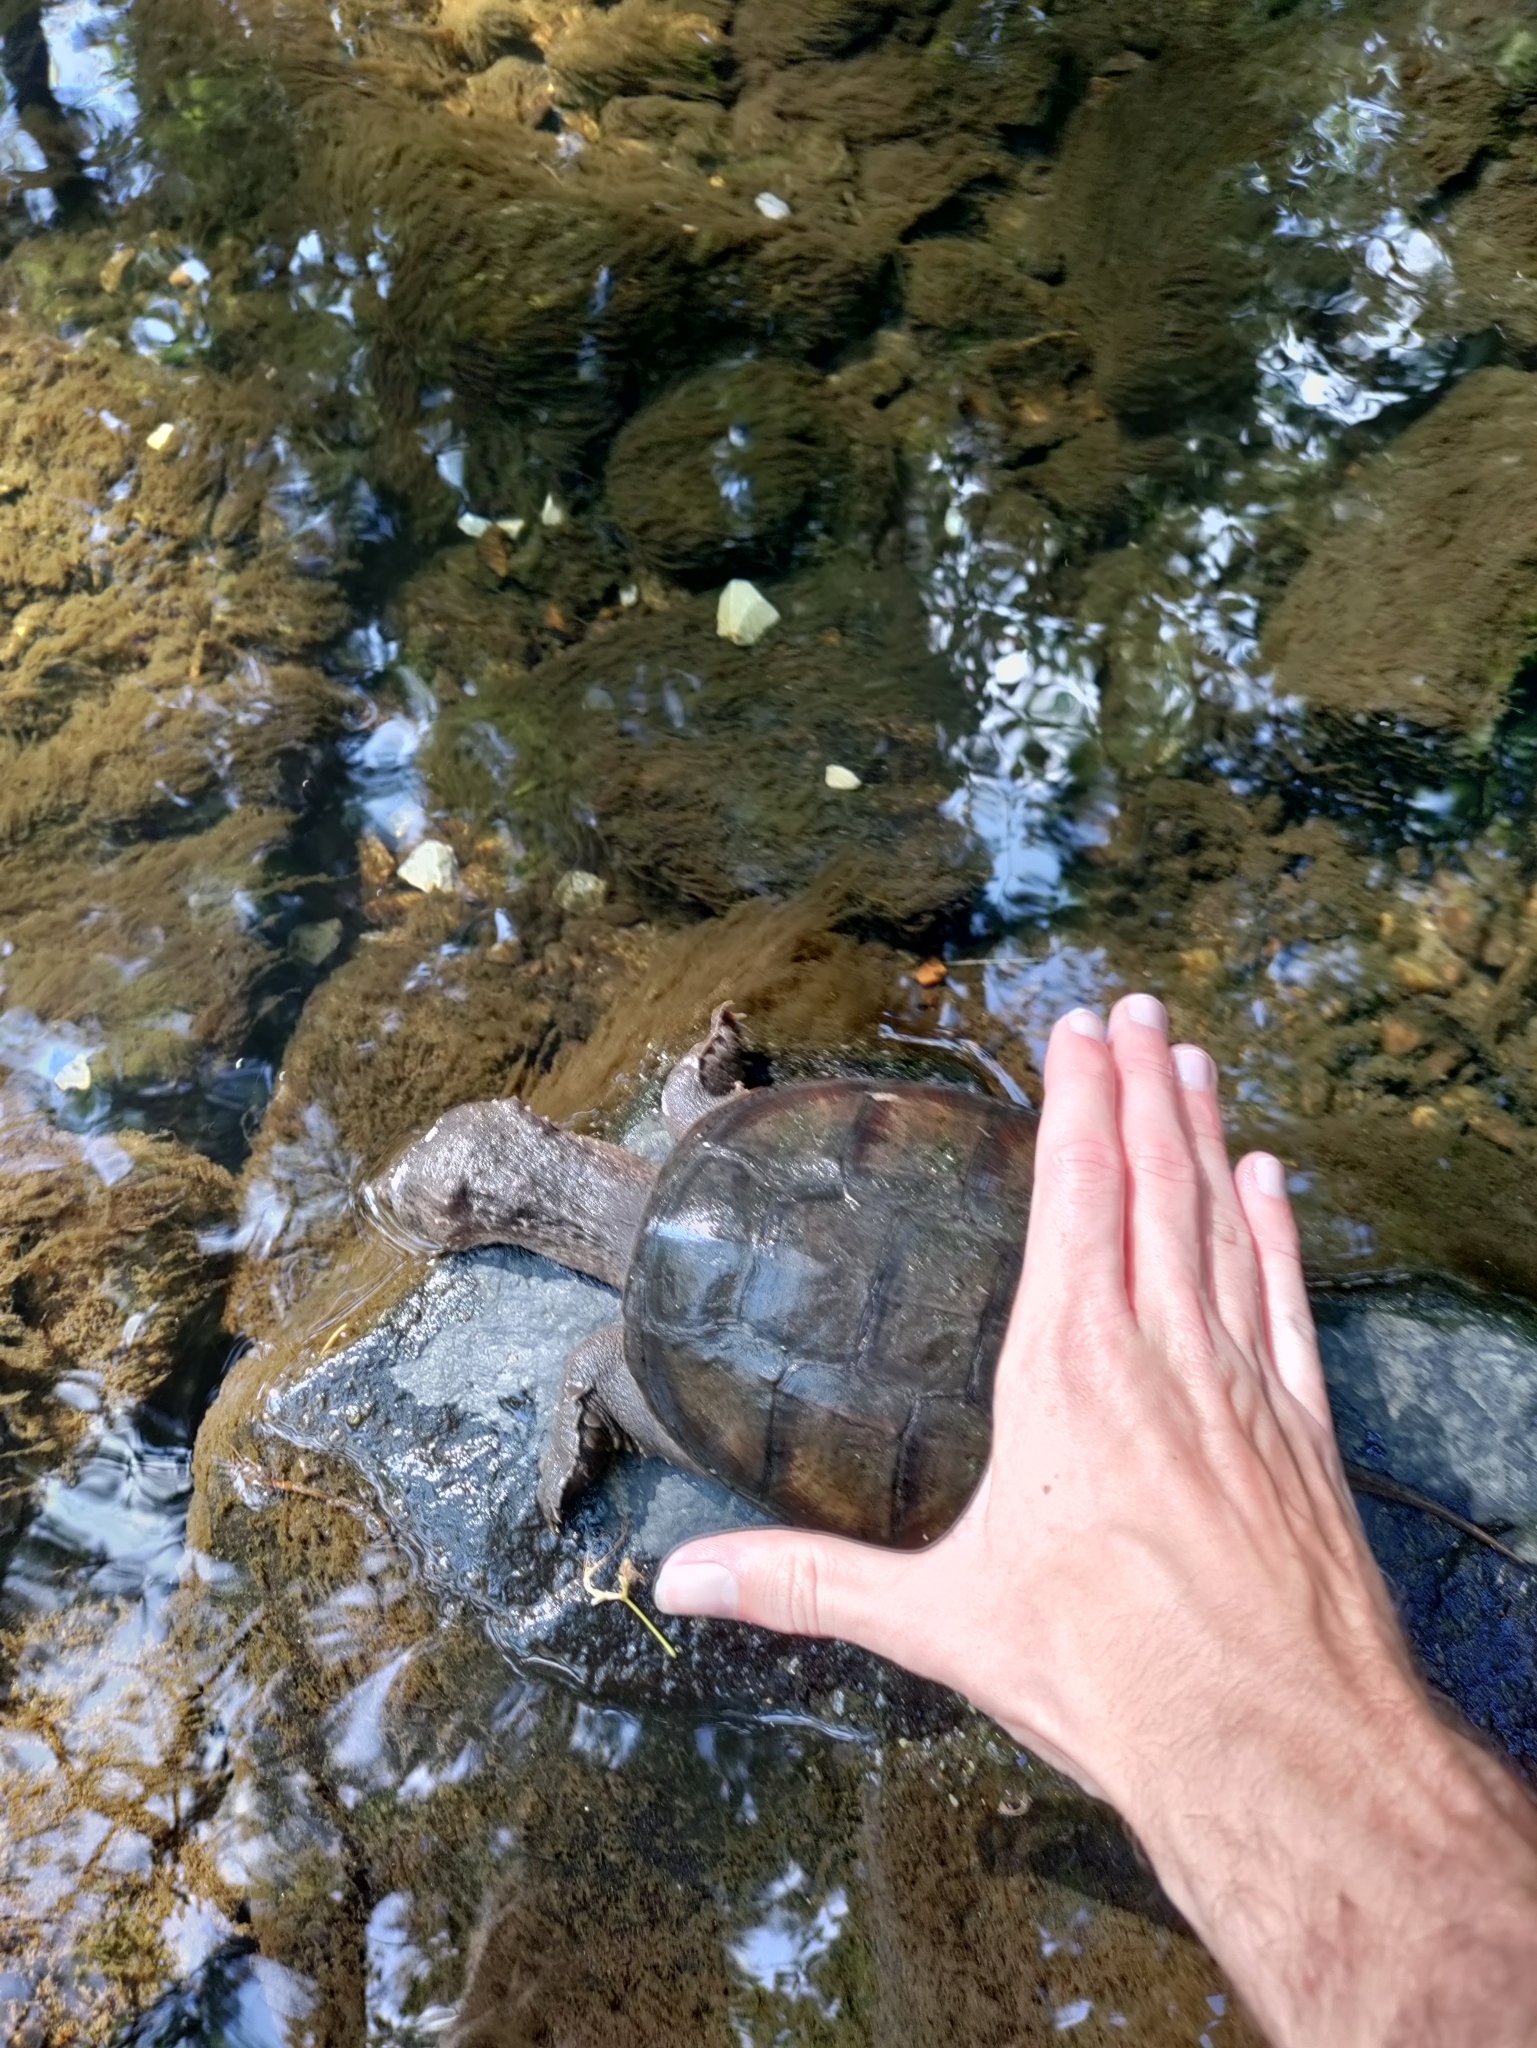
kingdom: Animalia
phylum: Chordata
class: Testudines
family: Chelydridae
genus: Chelydra
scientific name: Chelydra serpentina
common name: Common snapping turtle
